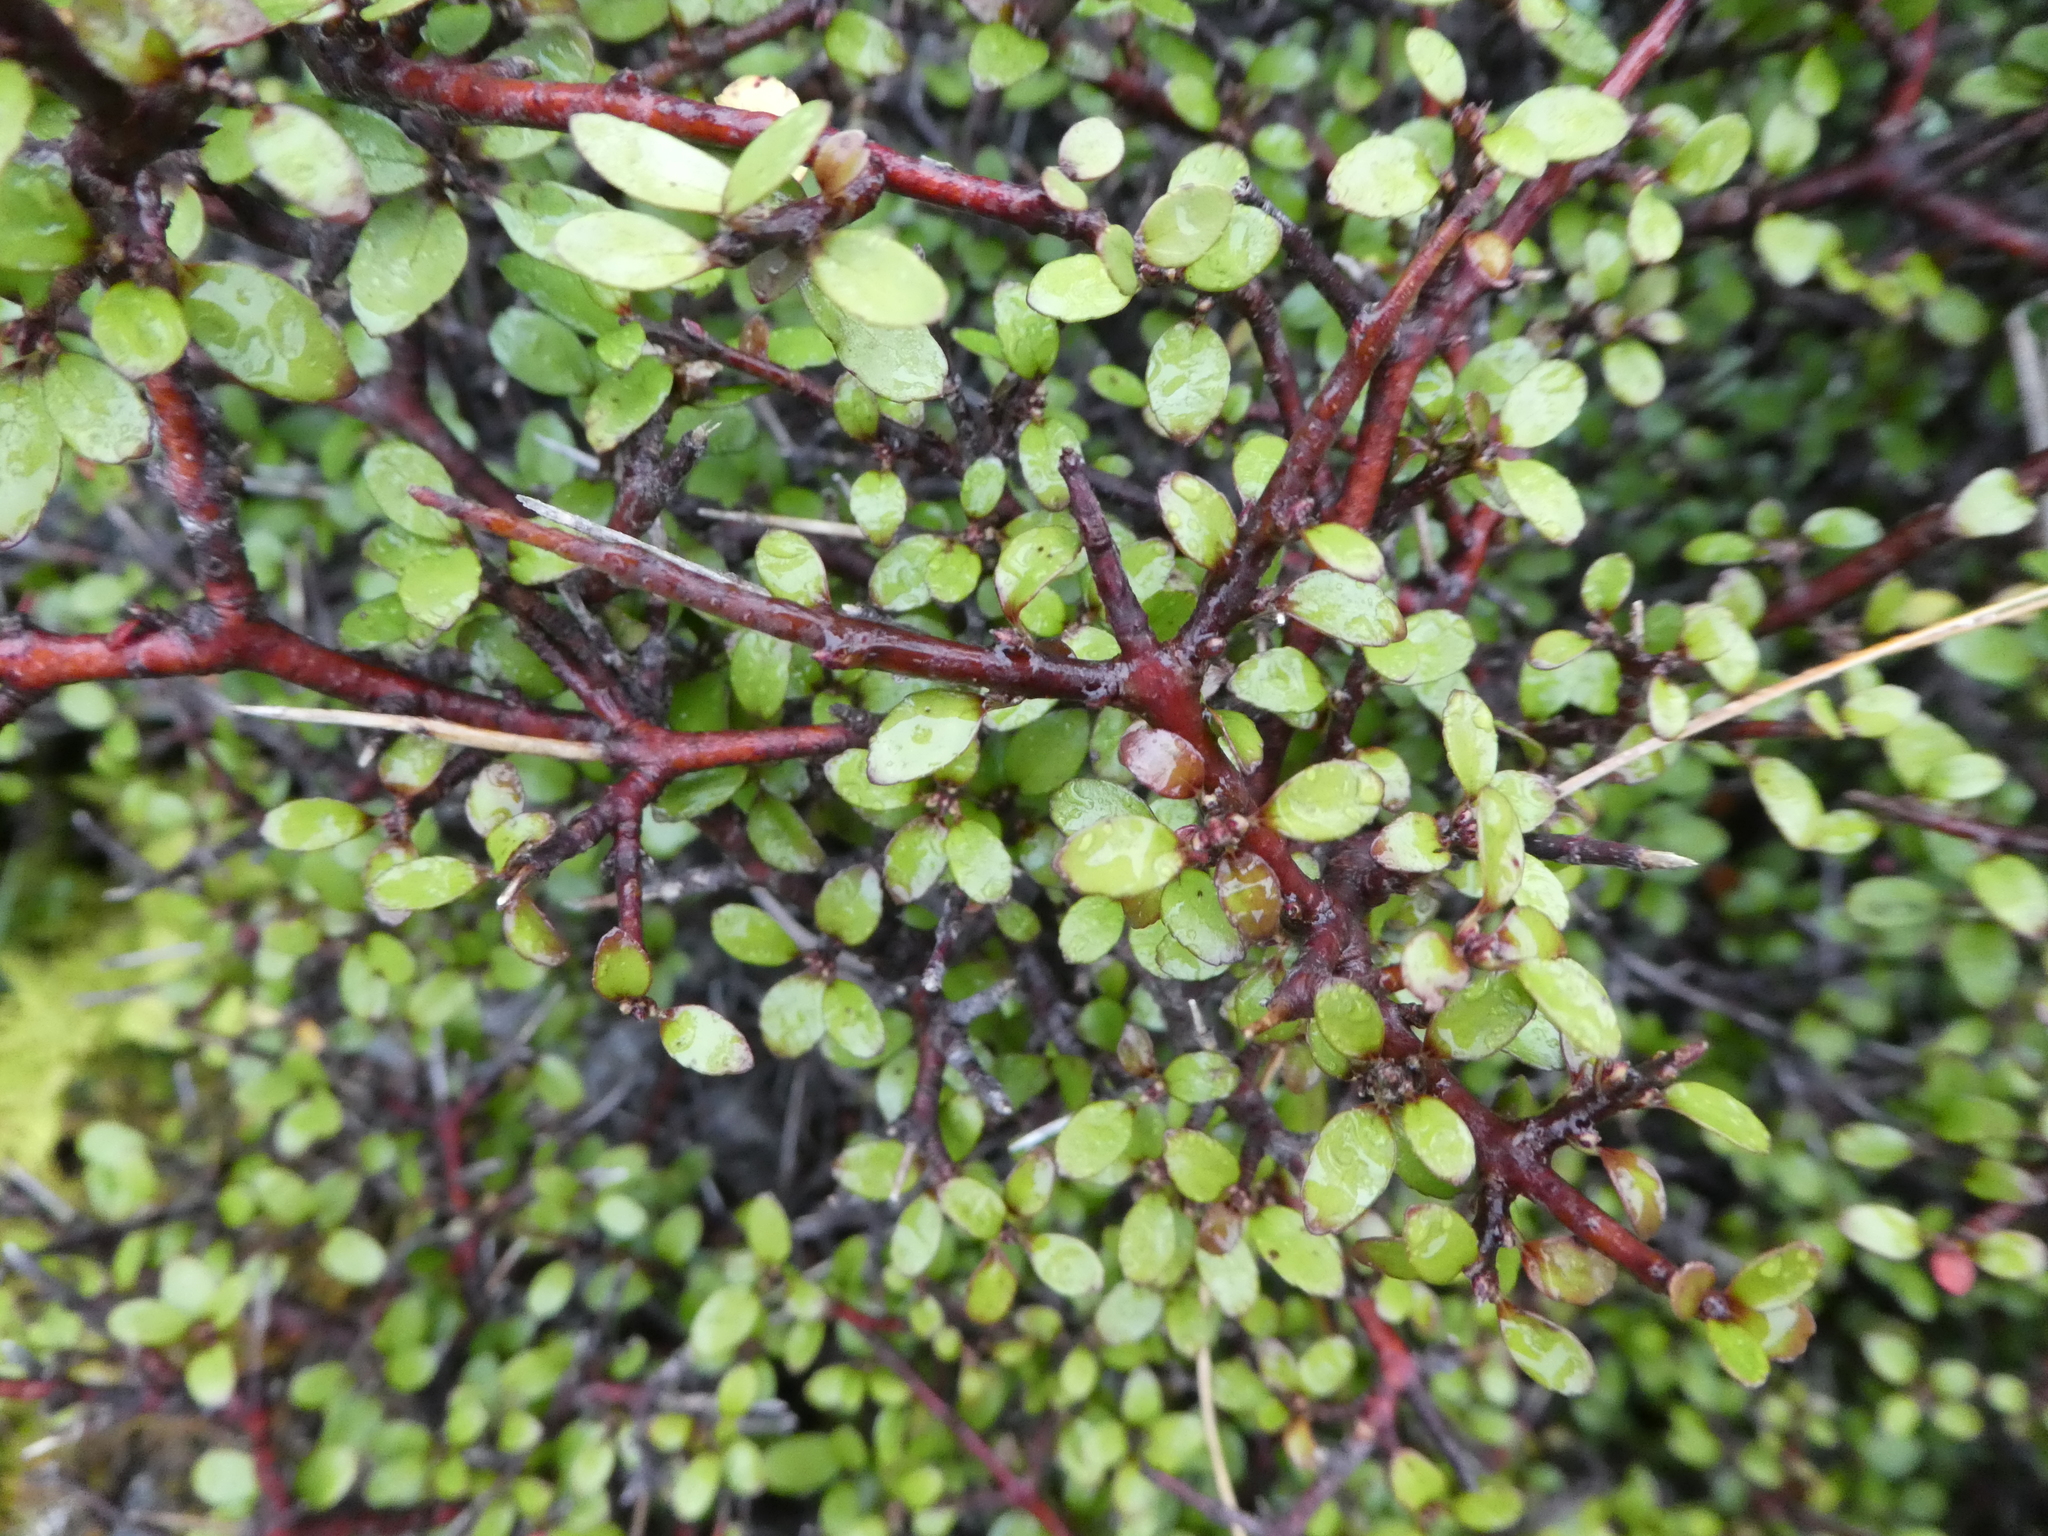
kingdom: Plantae
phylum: Tracheophyta
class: Magnoliopsida
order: Oxalidales
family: Elaeocarpaceae
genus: Aristotelia
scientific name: Aristotelia fruticosa
